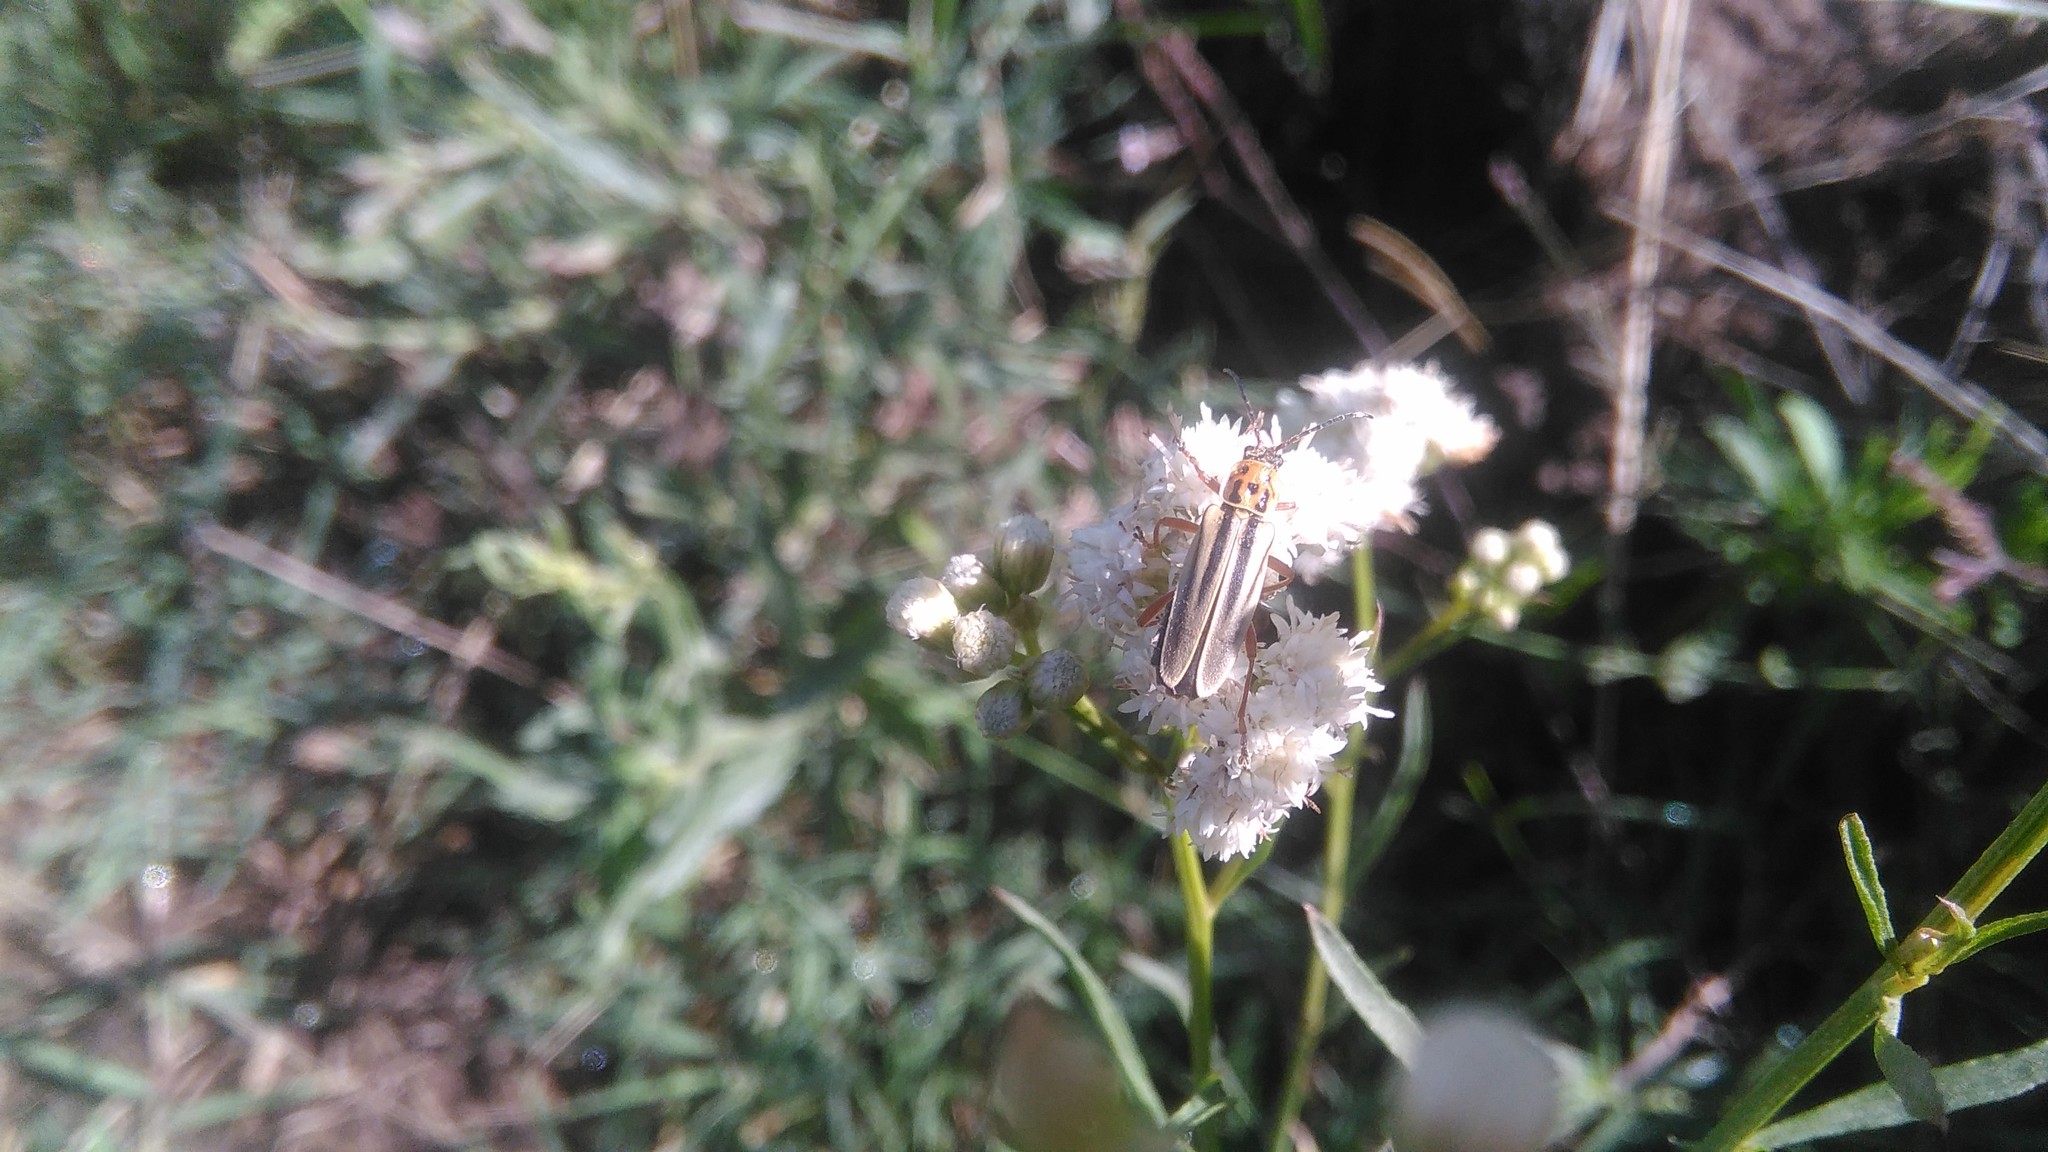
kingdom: Animalia
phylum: Arthropoda
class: Insecta
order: Coleoptera
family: Cantharidae
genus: Chauliognathus
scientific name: Chauliognathus
